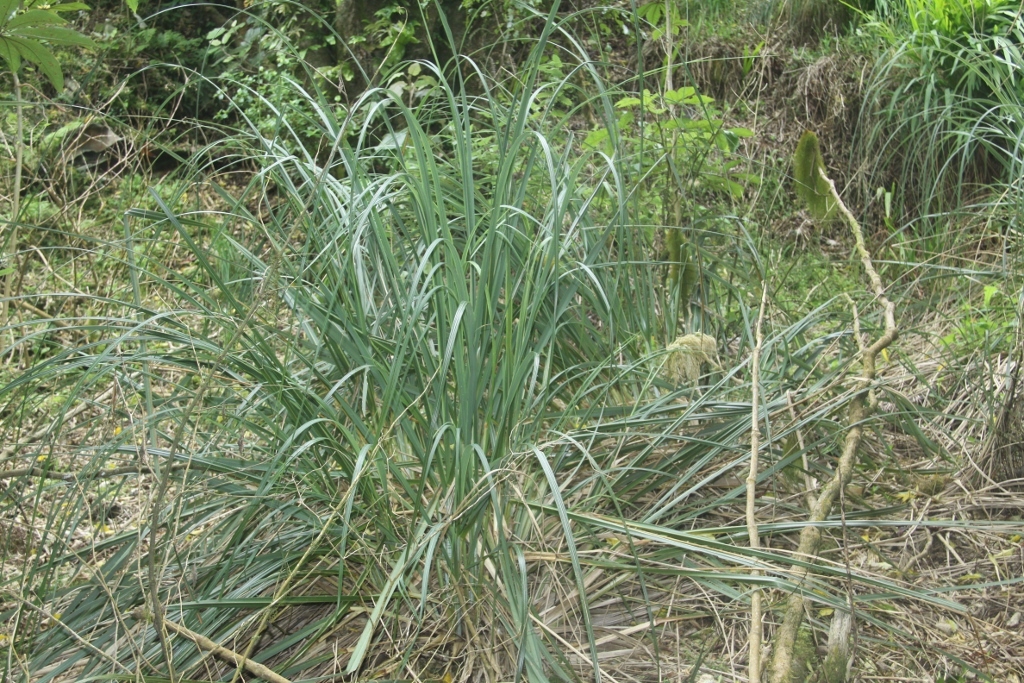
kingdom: Plantae
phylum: Tracheophyta
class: Liliopsida
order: Poales
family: Poaceae
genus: Austroderia
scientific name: Austroderia fulvida
